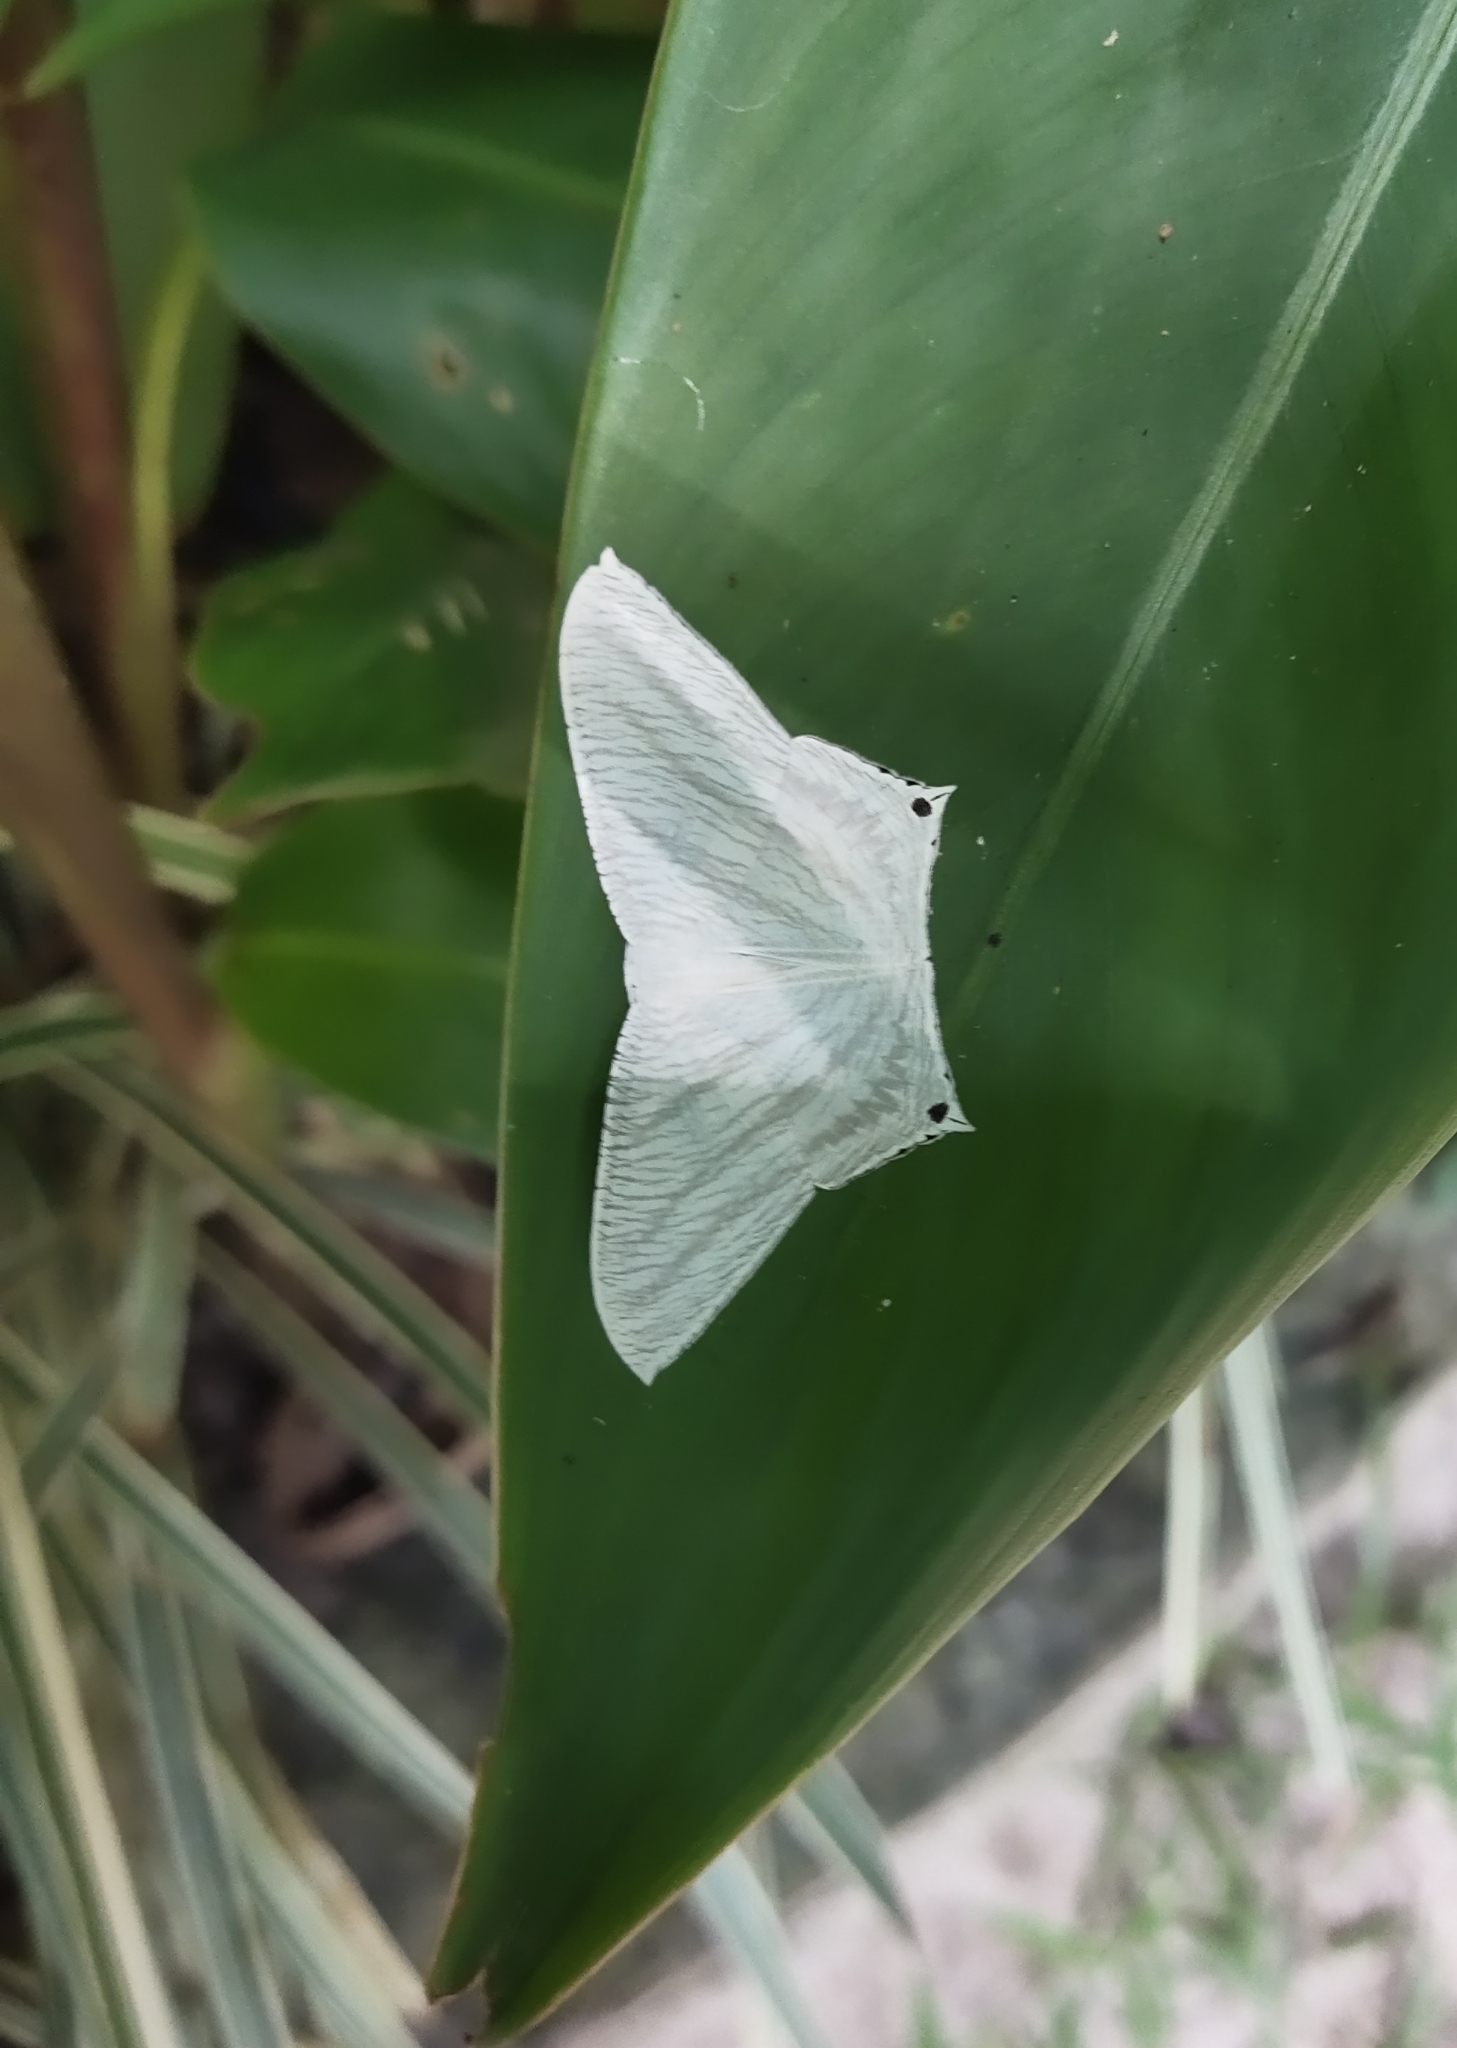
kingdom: Animalia
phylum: Arthropoda
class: Insecta
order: Lepidoptera
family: Uraniidae
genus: Micronia
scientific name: Micronia aculeata
